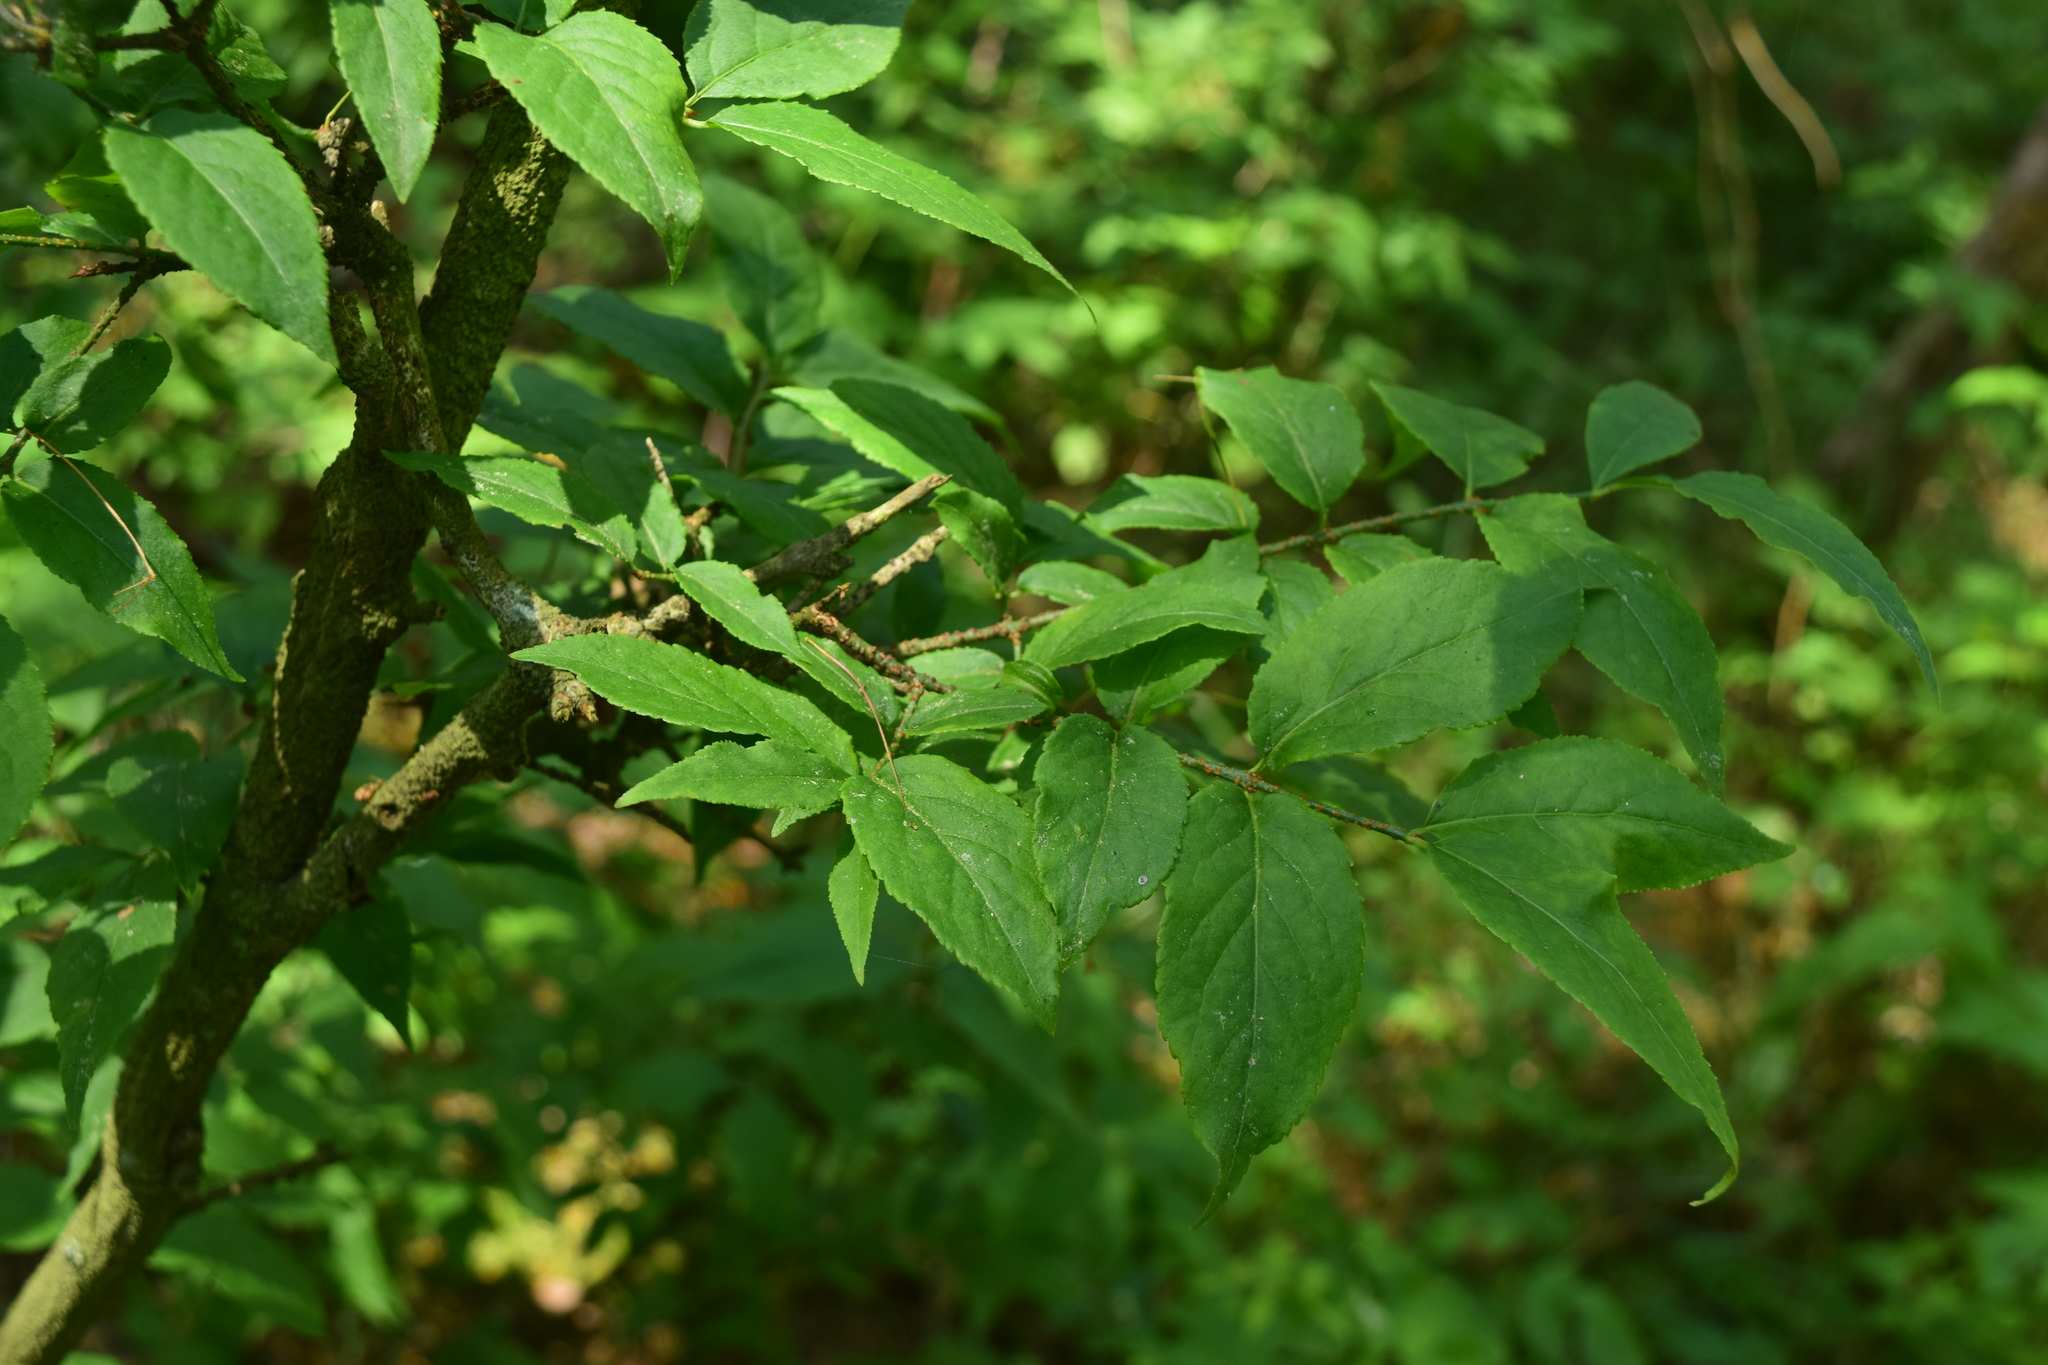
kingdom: Plantae
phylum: Tracheophyta
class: Magnoliopsida
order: Celastrales
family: Celastraceae
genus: Euonymus
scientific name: Euonymus verrucosus
